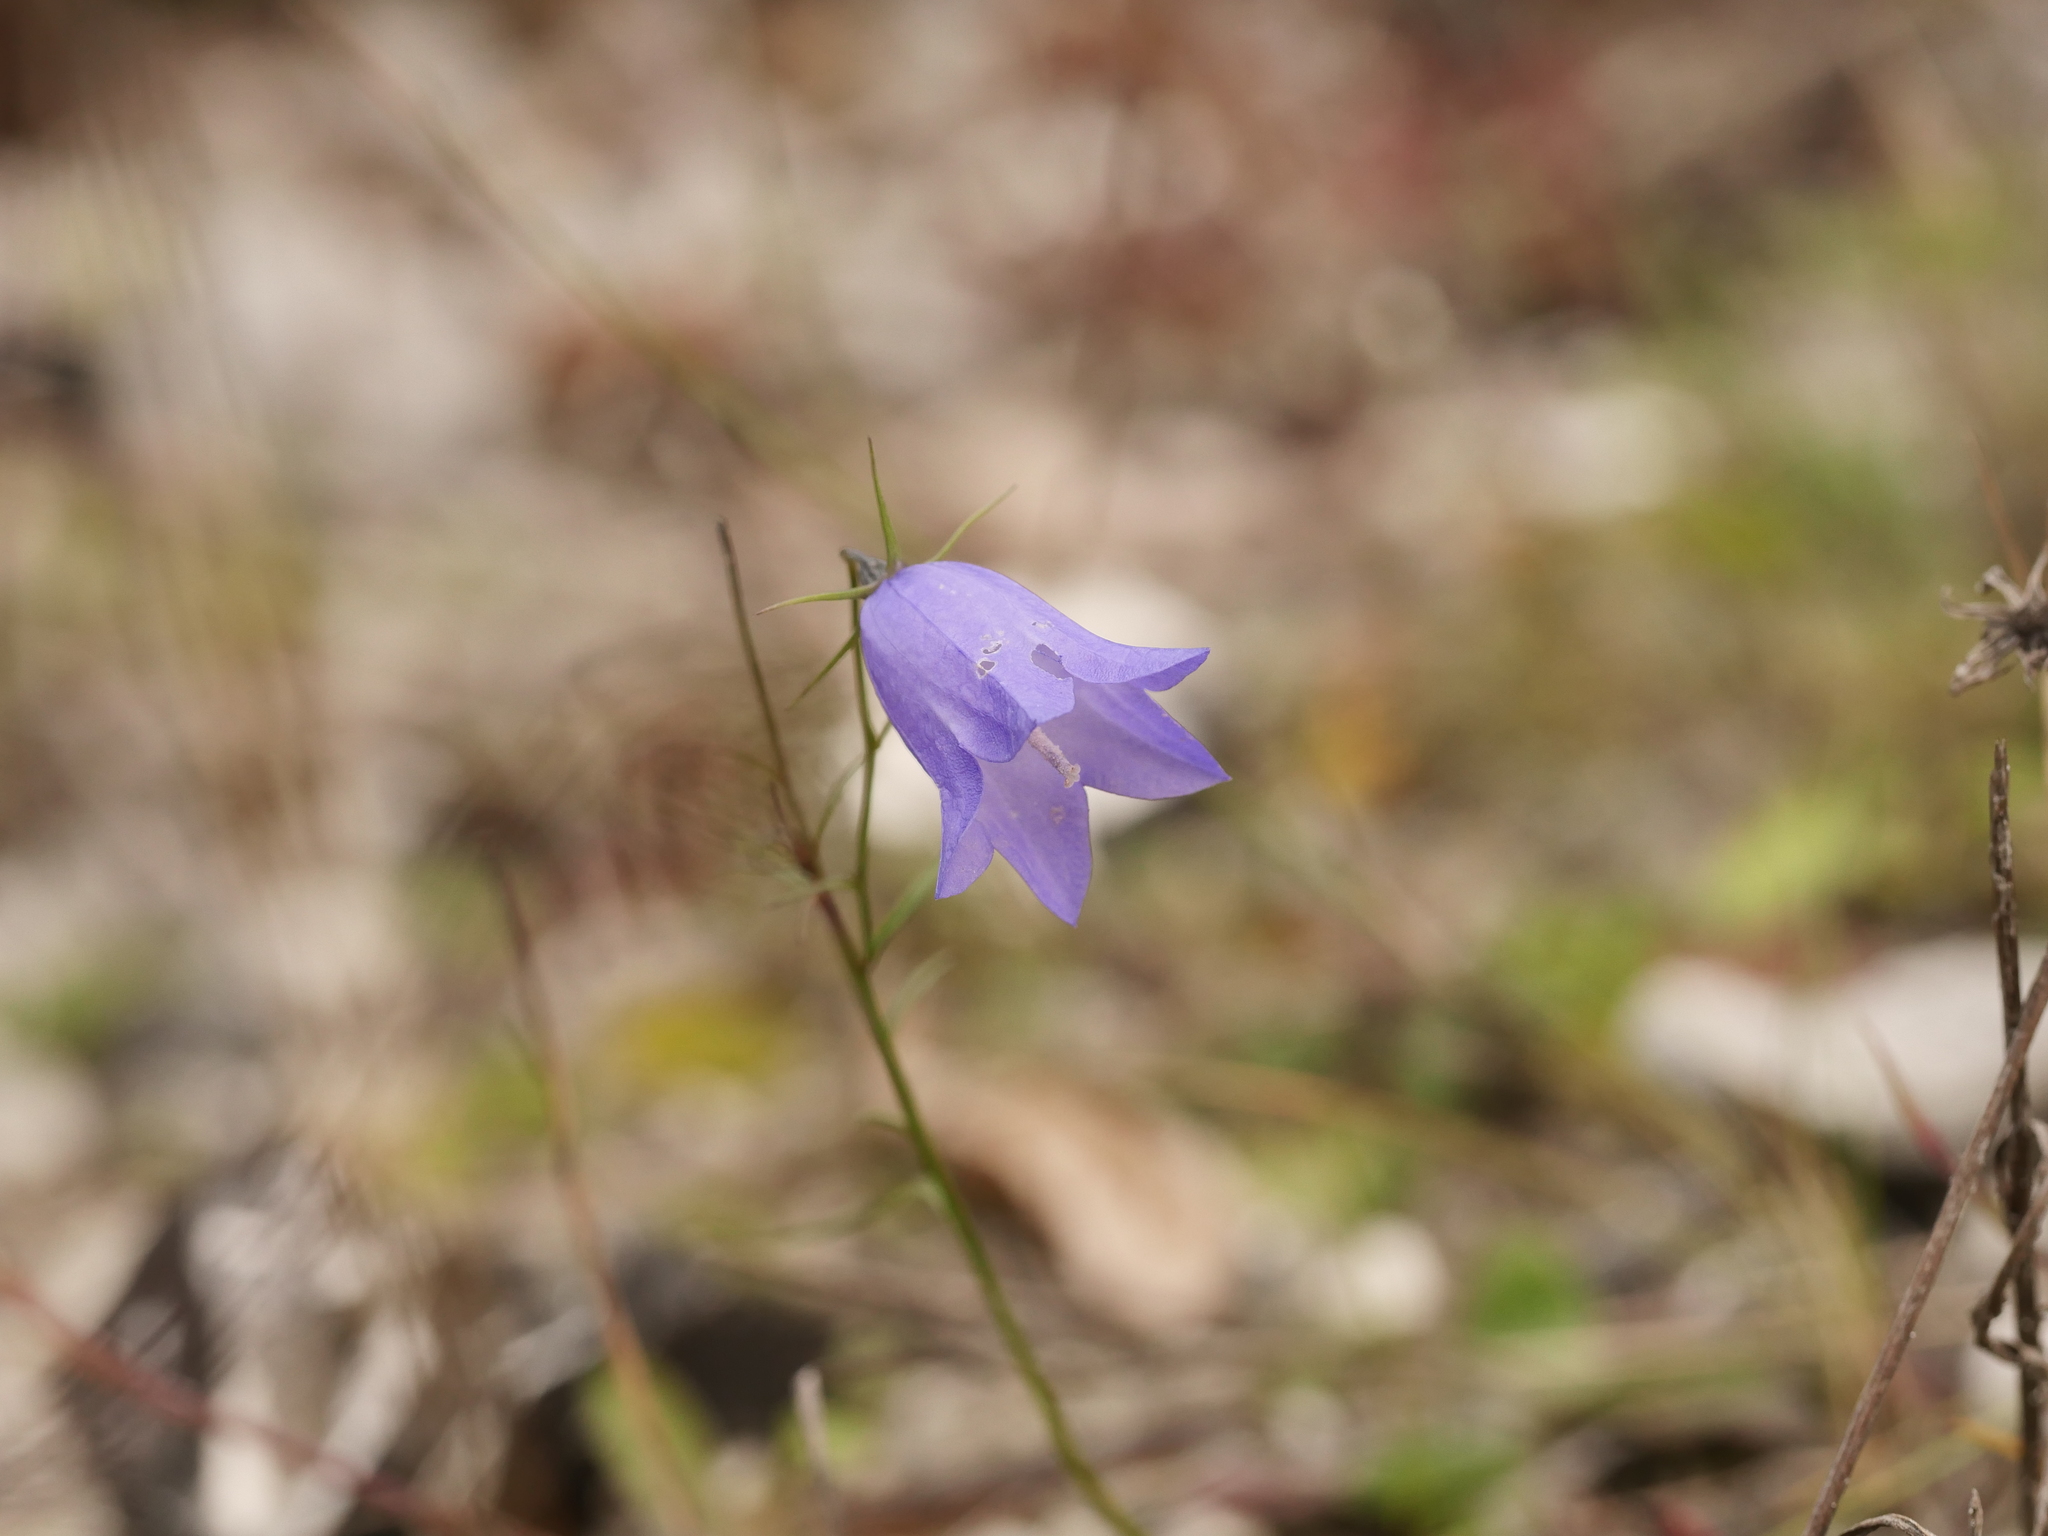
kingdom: Plantae
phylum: Tracheophyta
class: Magnoliopsida
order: Asterales
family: Campanulaceae
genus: Campanula
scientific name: Campanula rotundifolia
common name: Harebell
